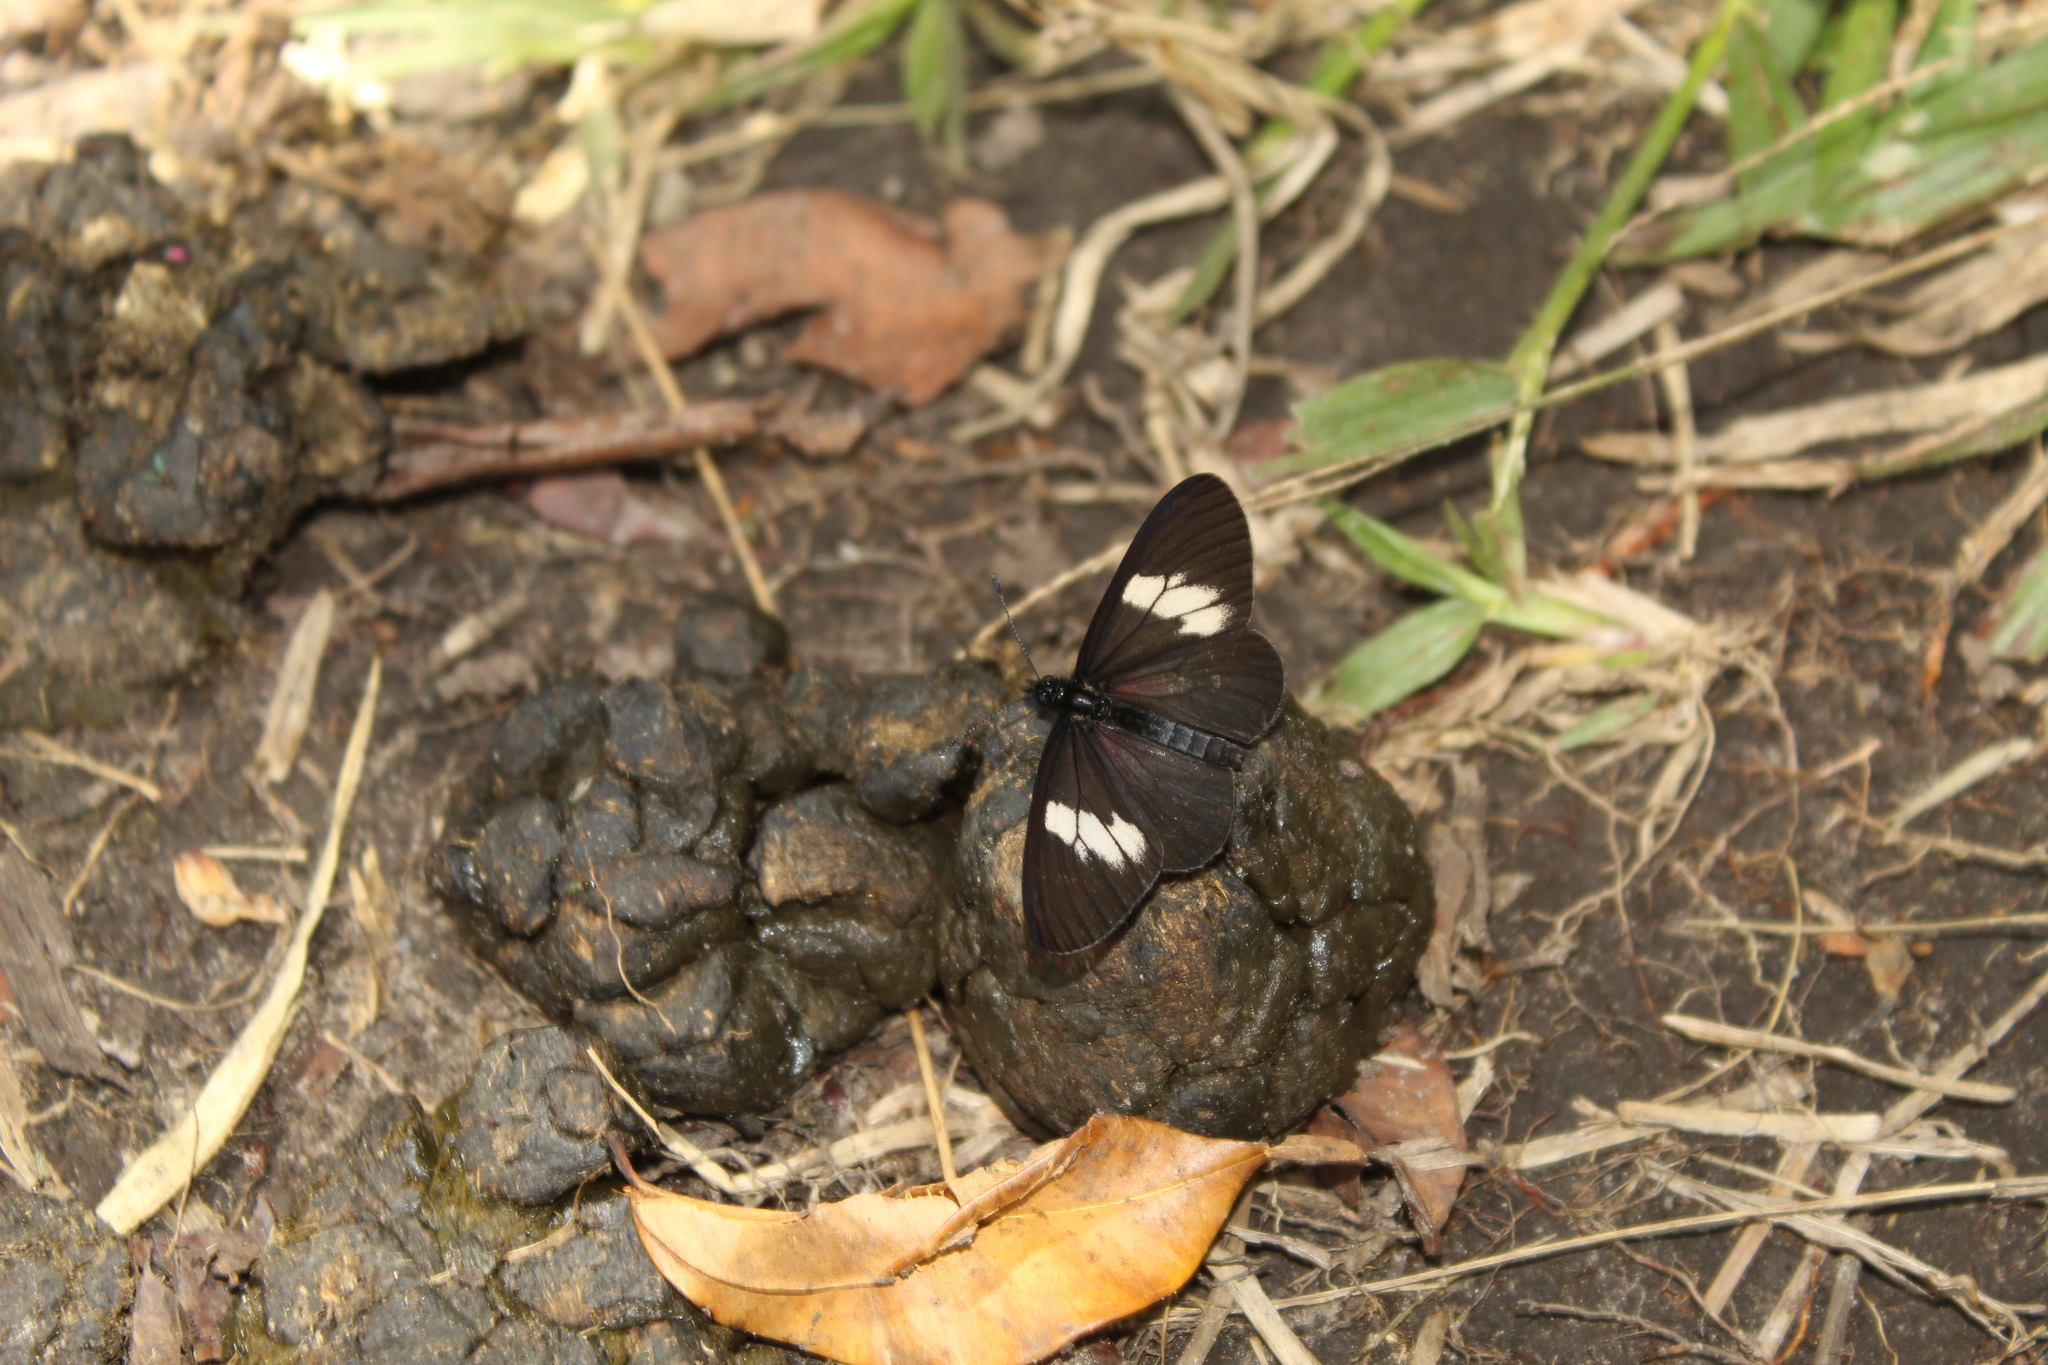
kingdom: Animalia
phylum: Arthropoda
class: Insecta
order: Lepidoptera
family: Nymphalidae
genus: Actinote
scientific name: Actinote
